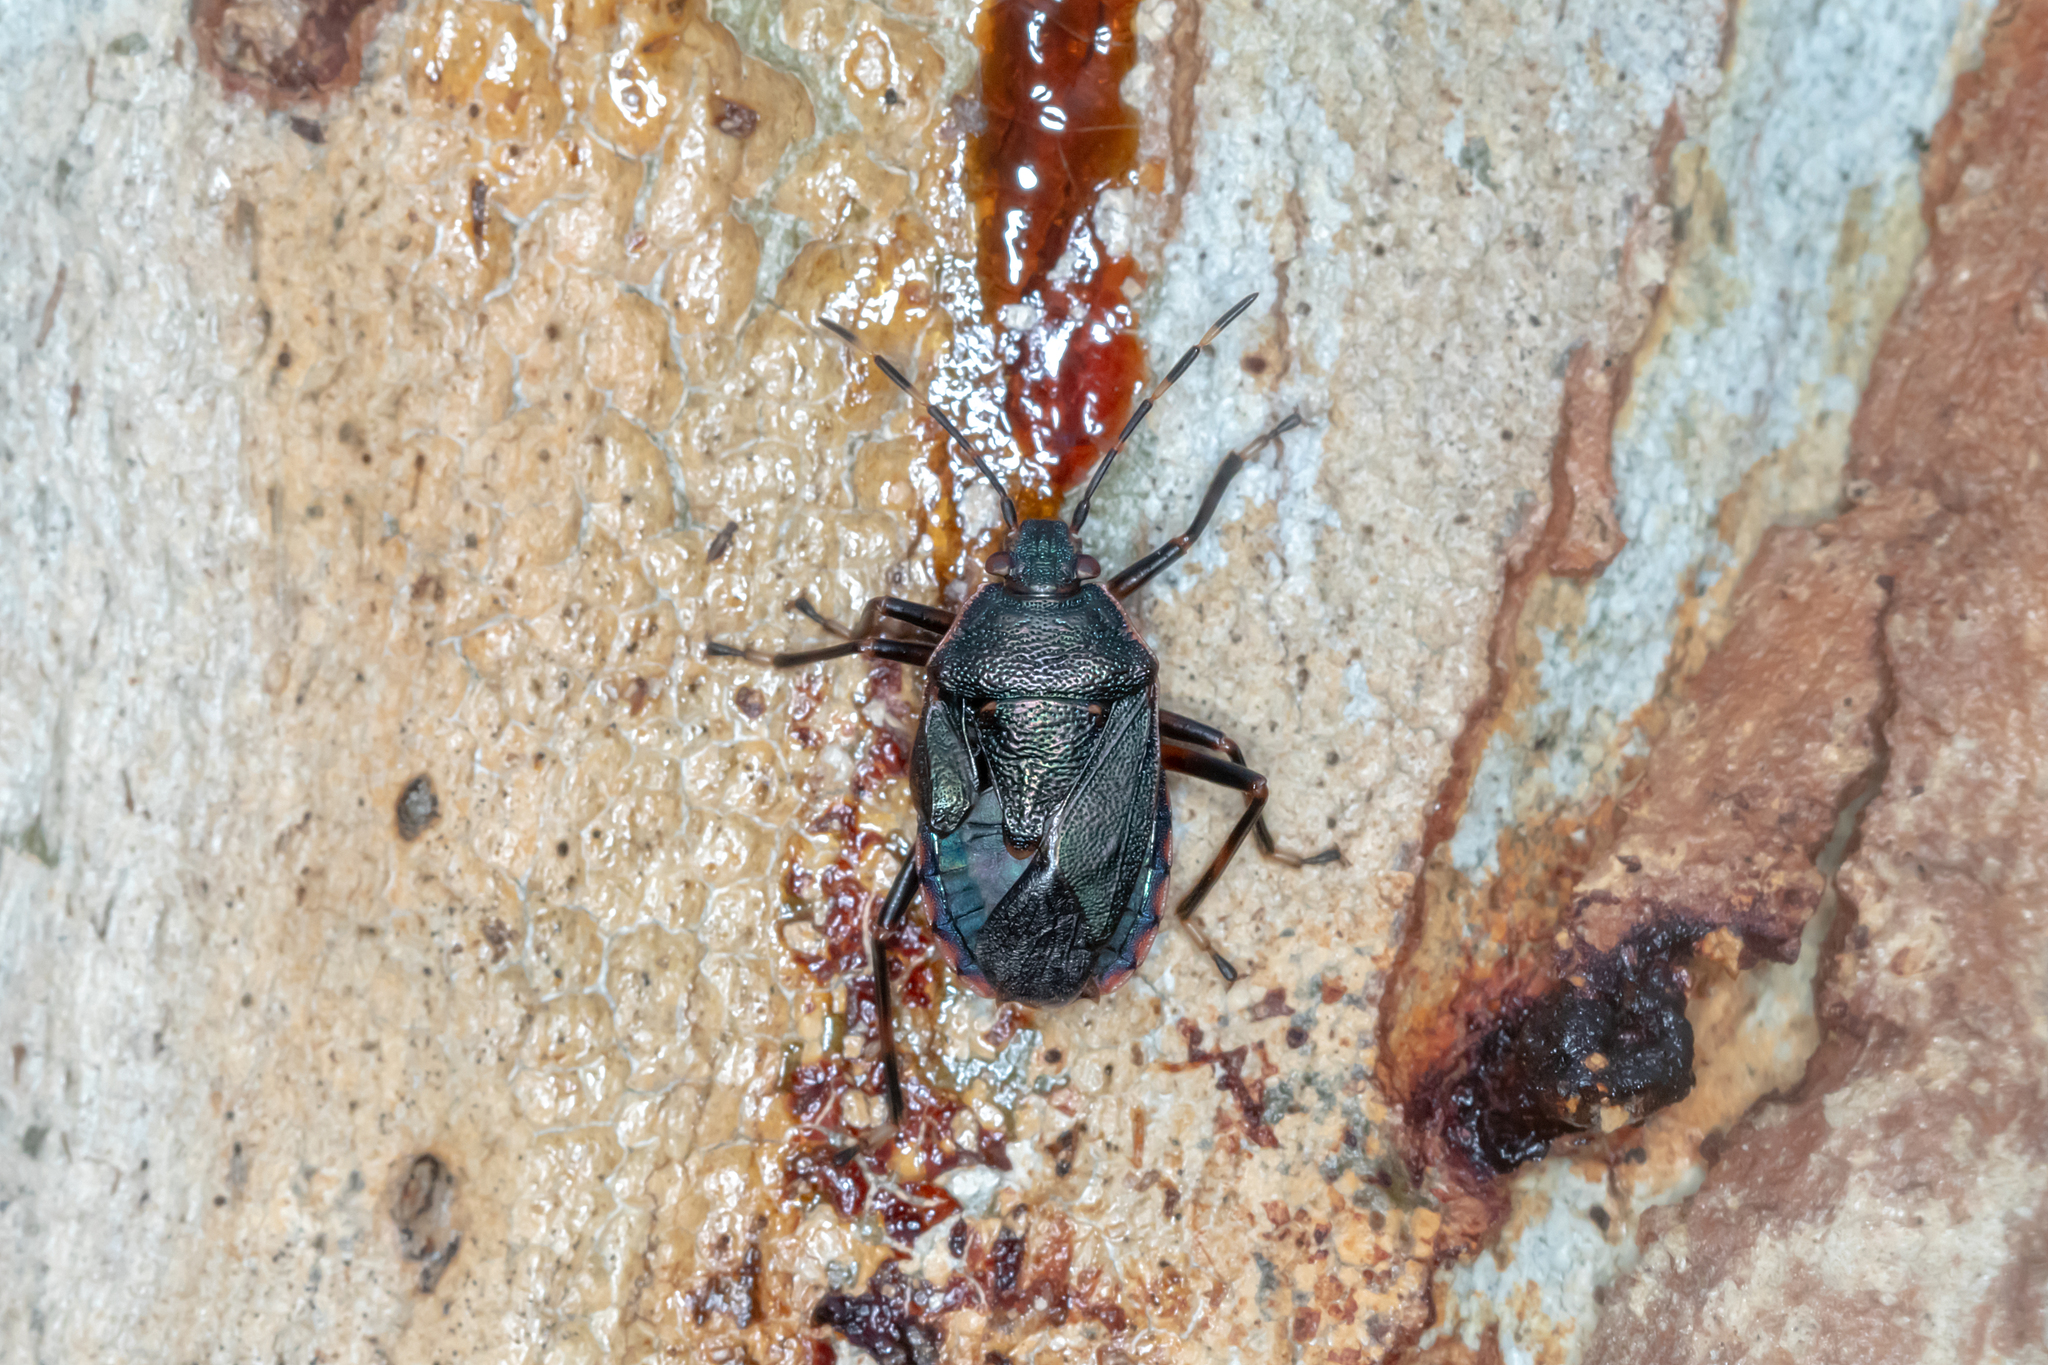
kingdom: Animalia
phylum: Arthropoda
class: Insecta
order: Hemiptera
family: Pentatomidae
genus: Notius
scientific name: Notius
